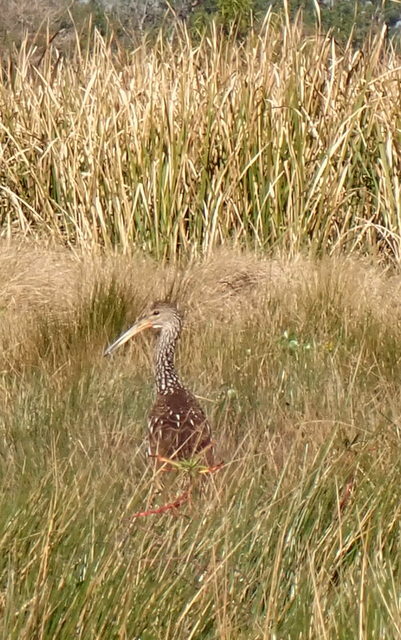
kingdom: Animalia
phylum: Chordata
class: Aves
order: Gruiformes
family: Aramidae
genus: Aramus
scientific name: Aramus guarauna
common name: Limpkin
